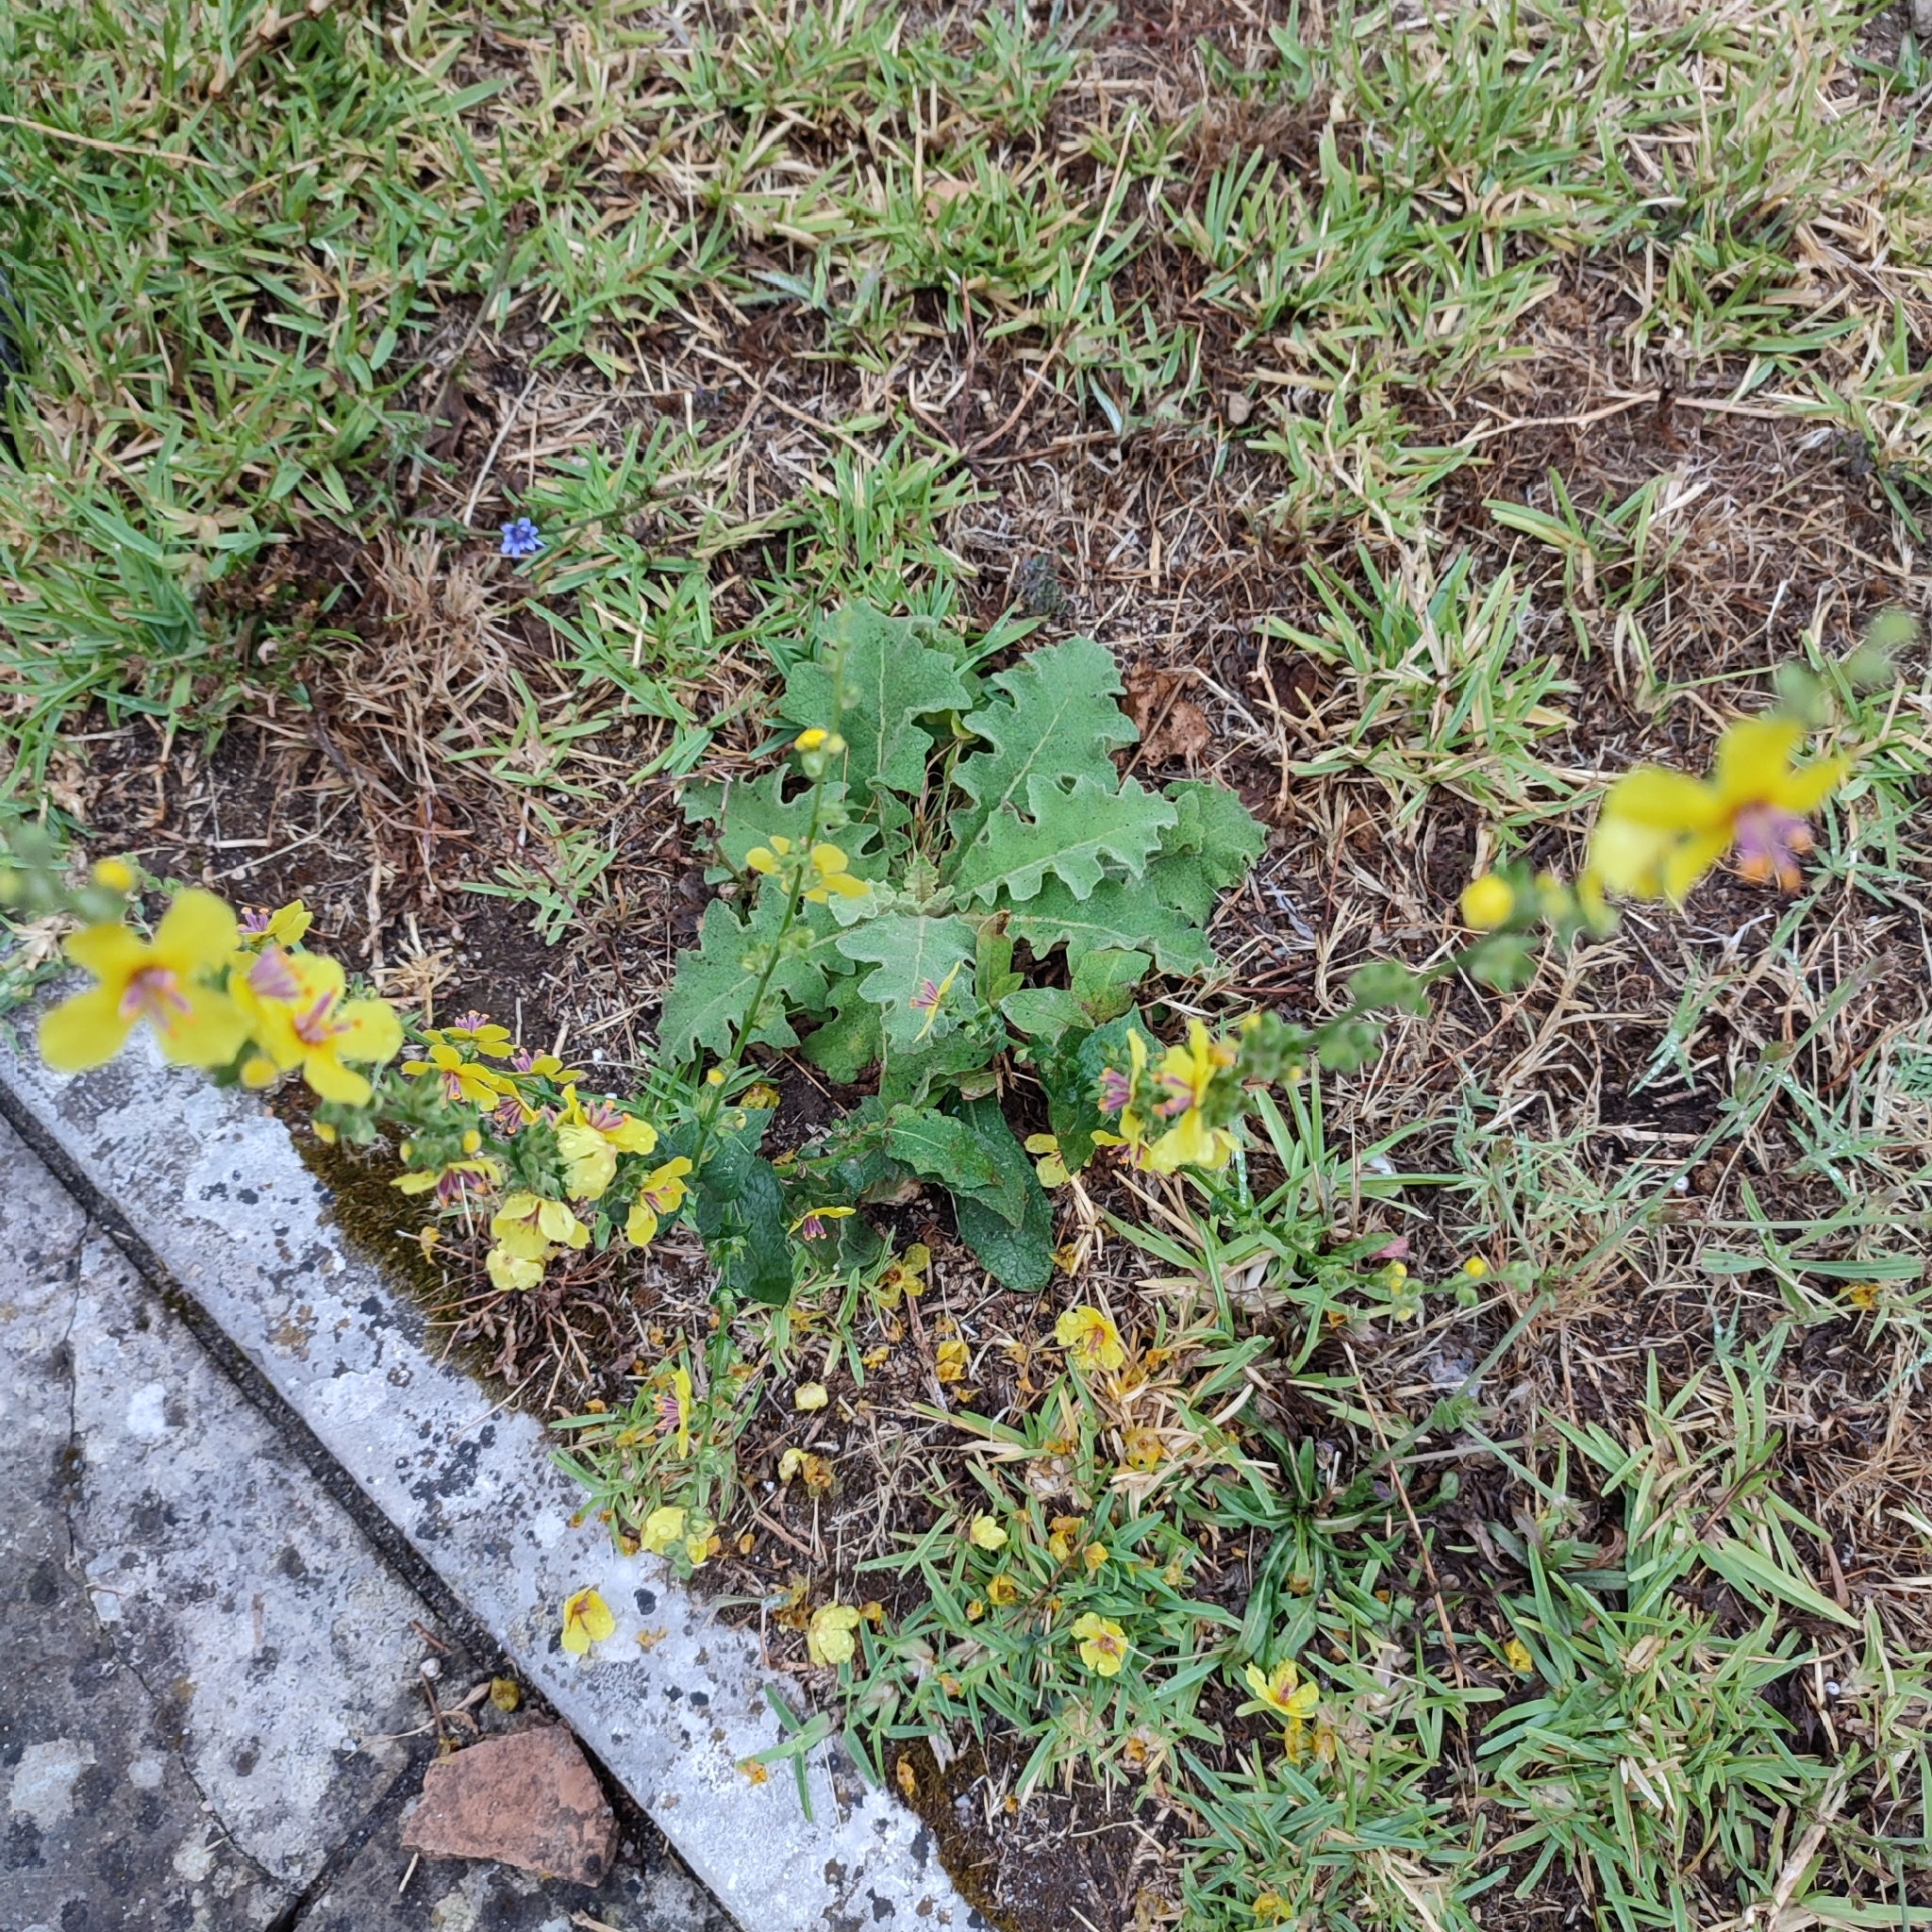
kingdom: Plantae
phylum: Tracheophyta
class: Magnoliopsida
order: Lamiales
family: Scrophulariaceae
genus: Verbascum
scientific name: Verbascum sinuatum
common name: Wavyleaf mullein
